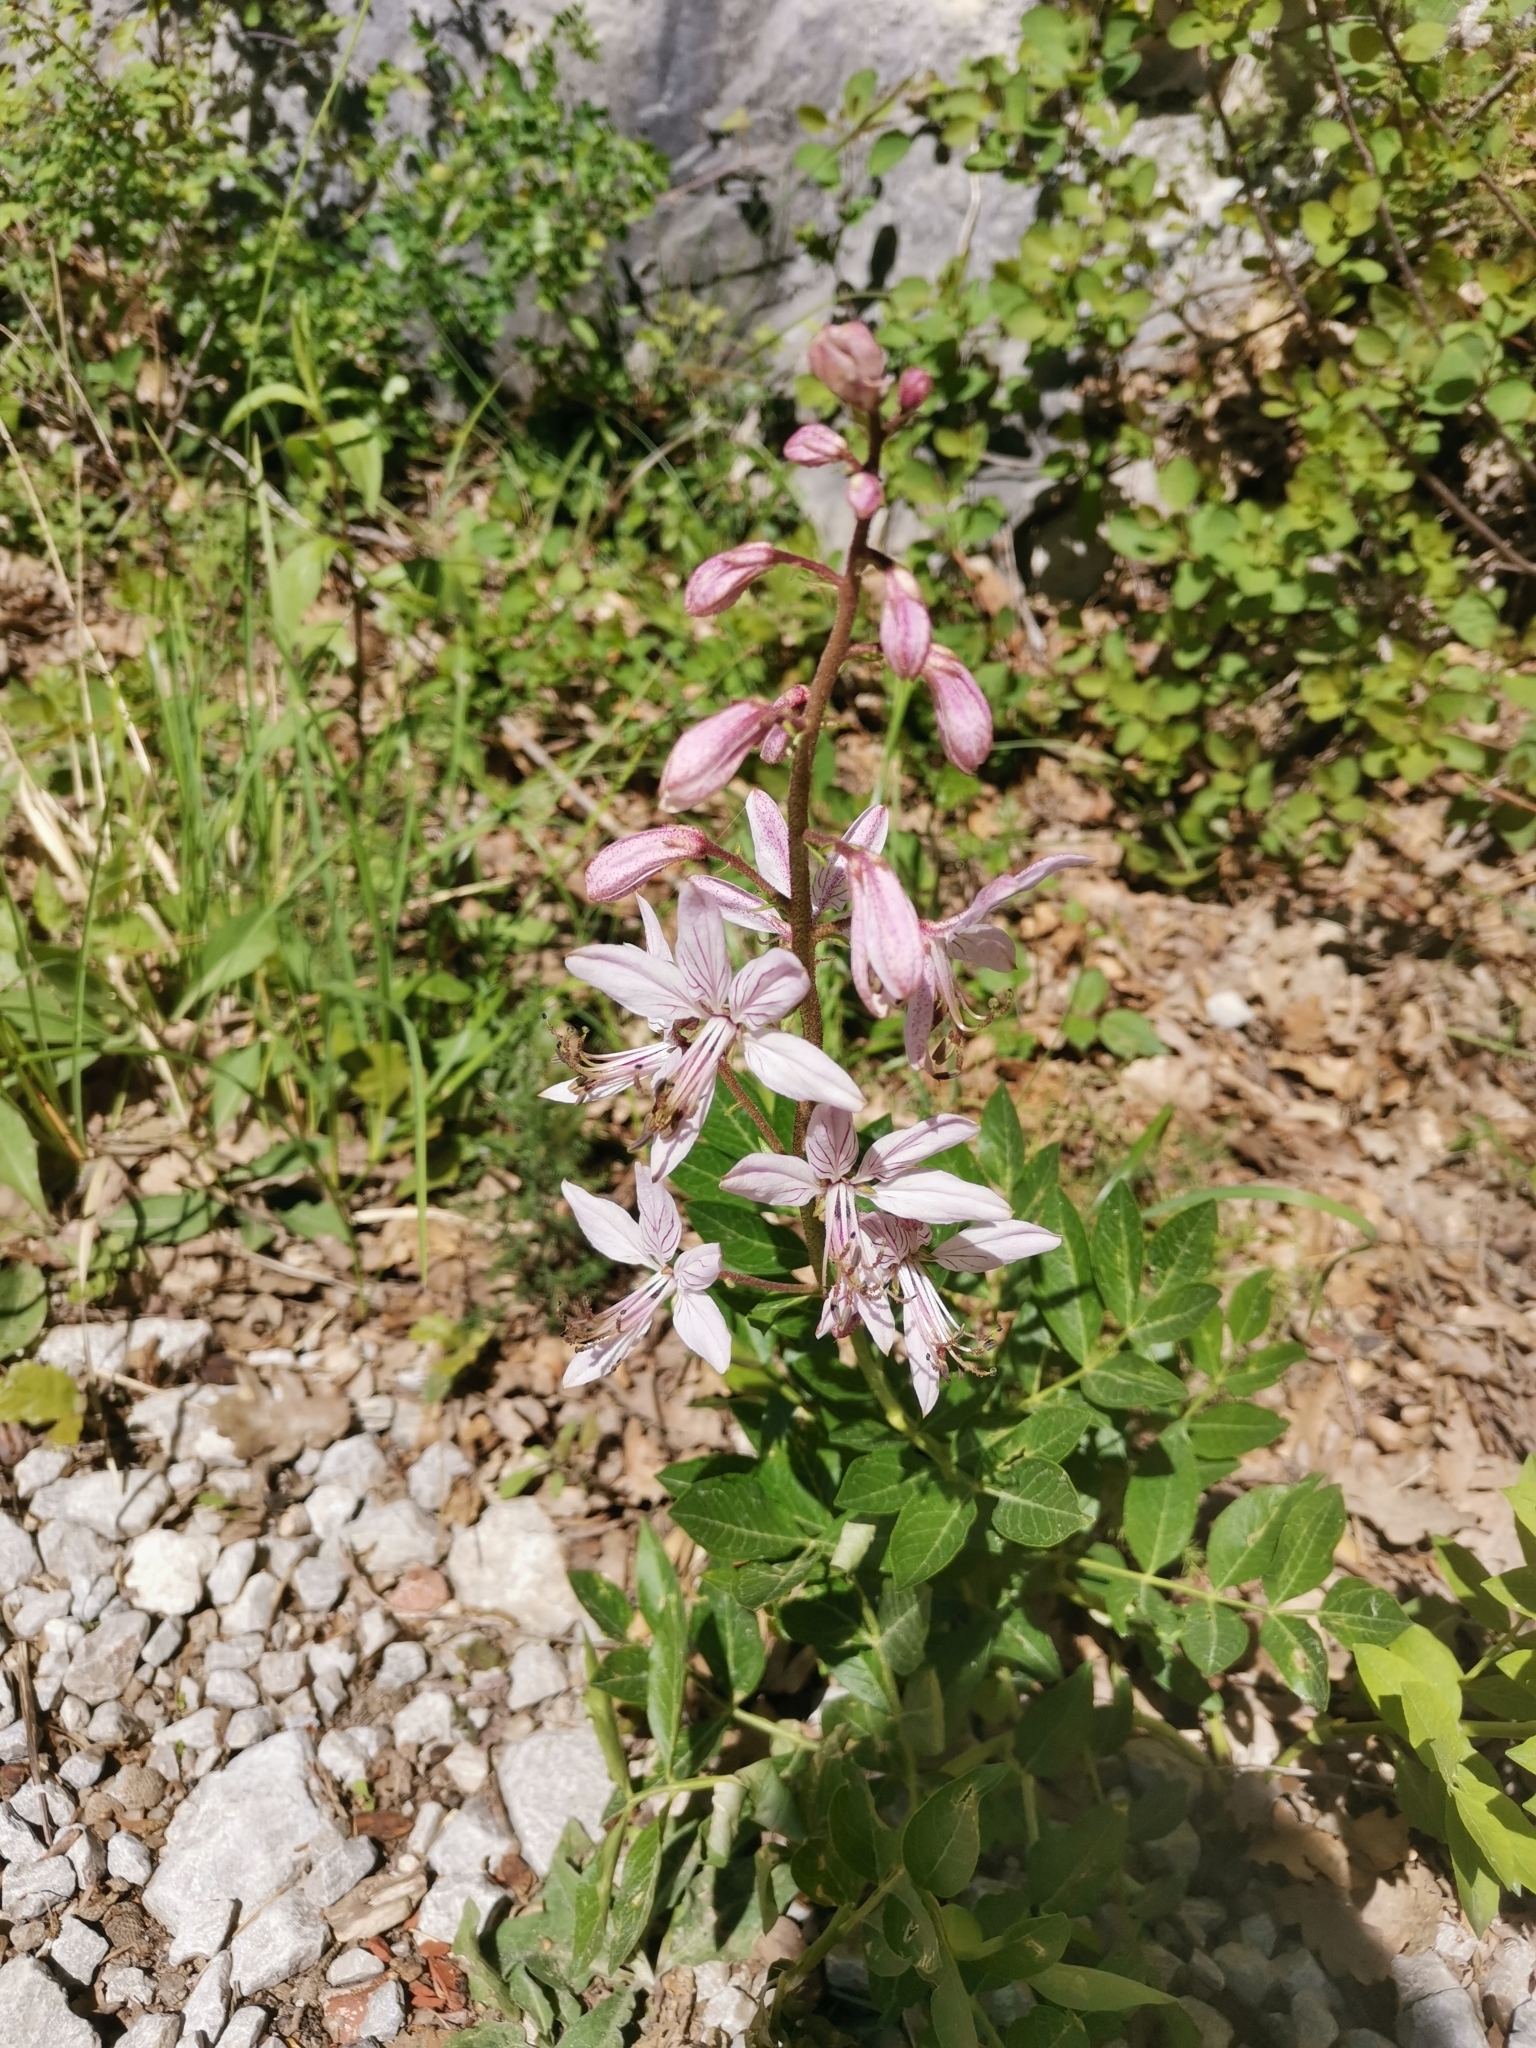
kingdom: Plantae
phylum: Tracheophyta
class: Magnoliopsida
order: Sapindales
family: Rutaceae
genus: Dictamnus
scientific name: Dictamnus albus
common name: Gasplant
